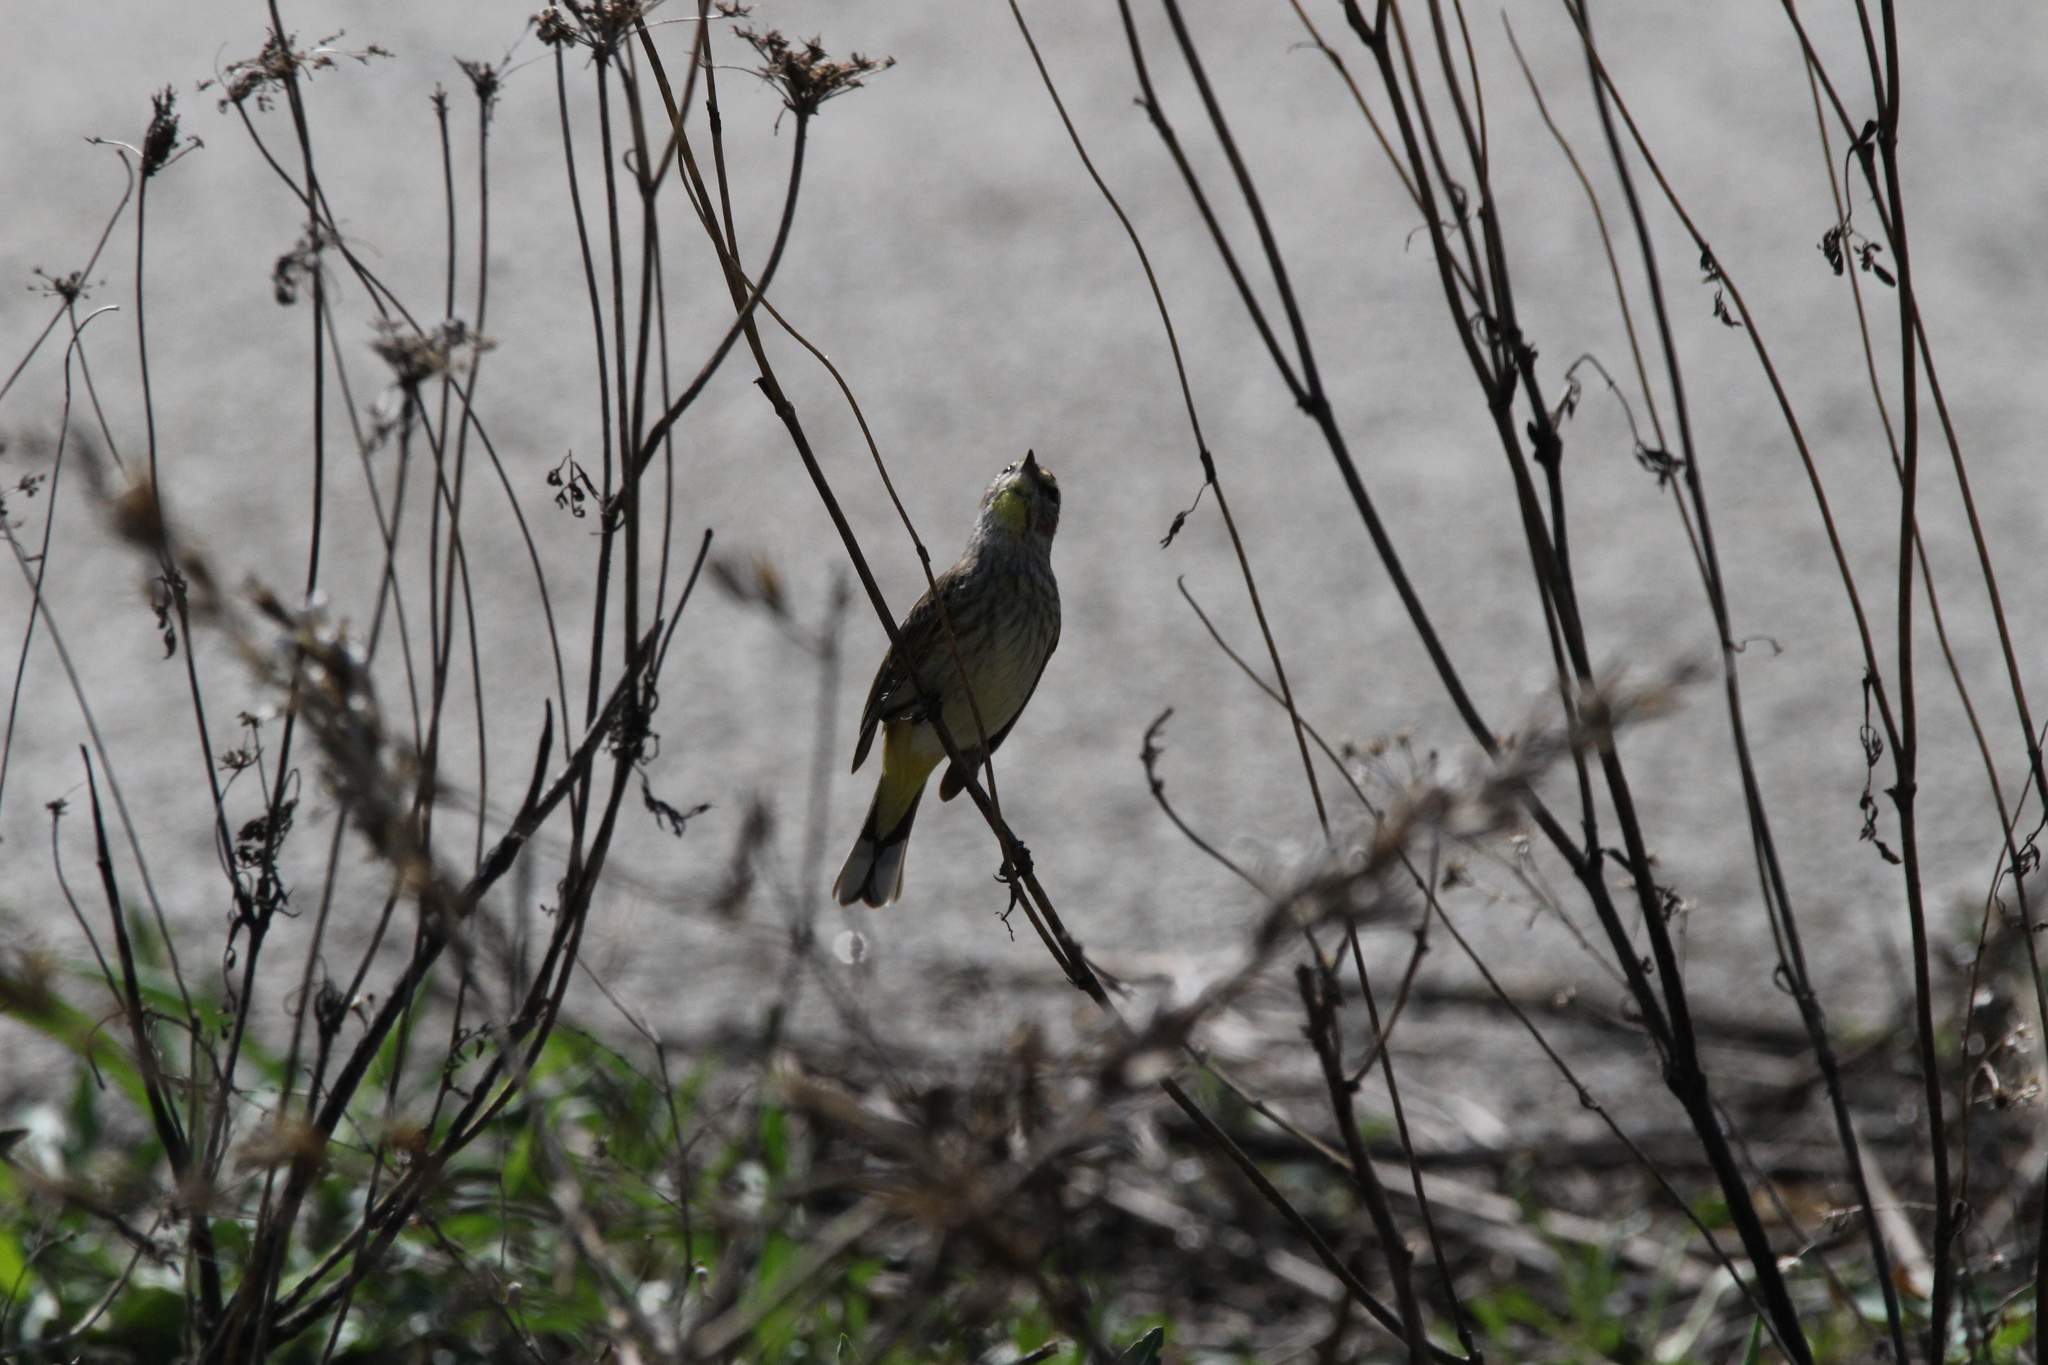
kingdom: Animalia
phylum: Chordata
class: Aves
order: Passeriformes
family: Parulidae
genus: Setophaga
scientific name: Setophaga palmarum
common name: Palm warbler
